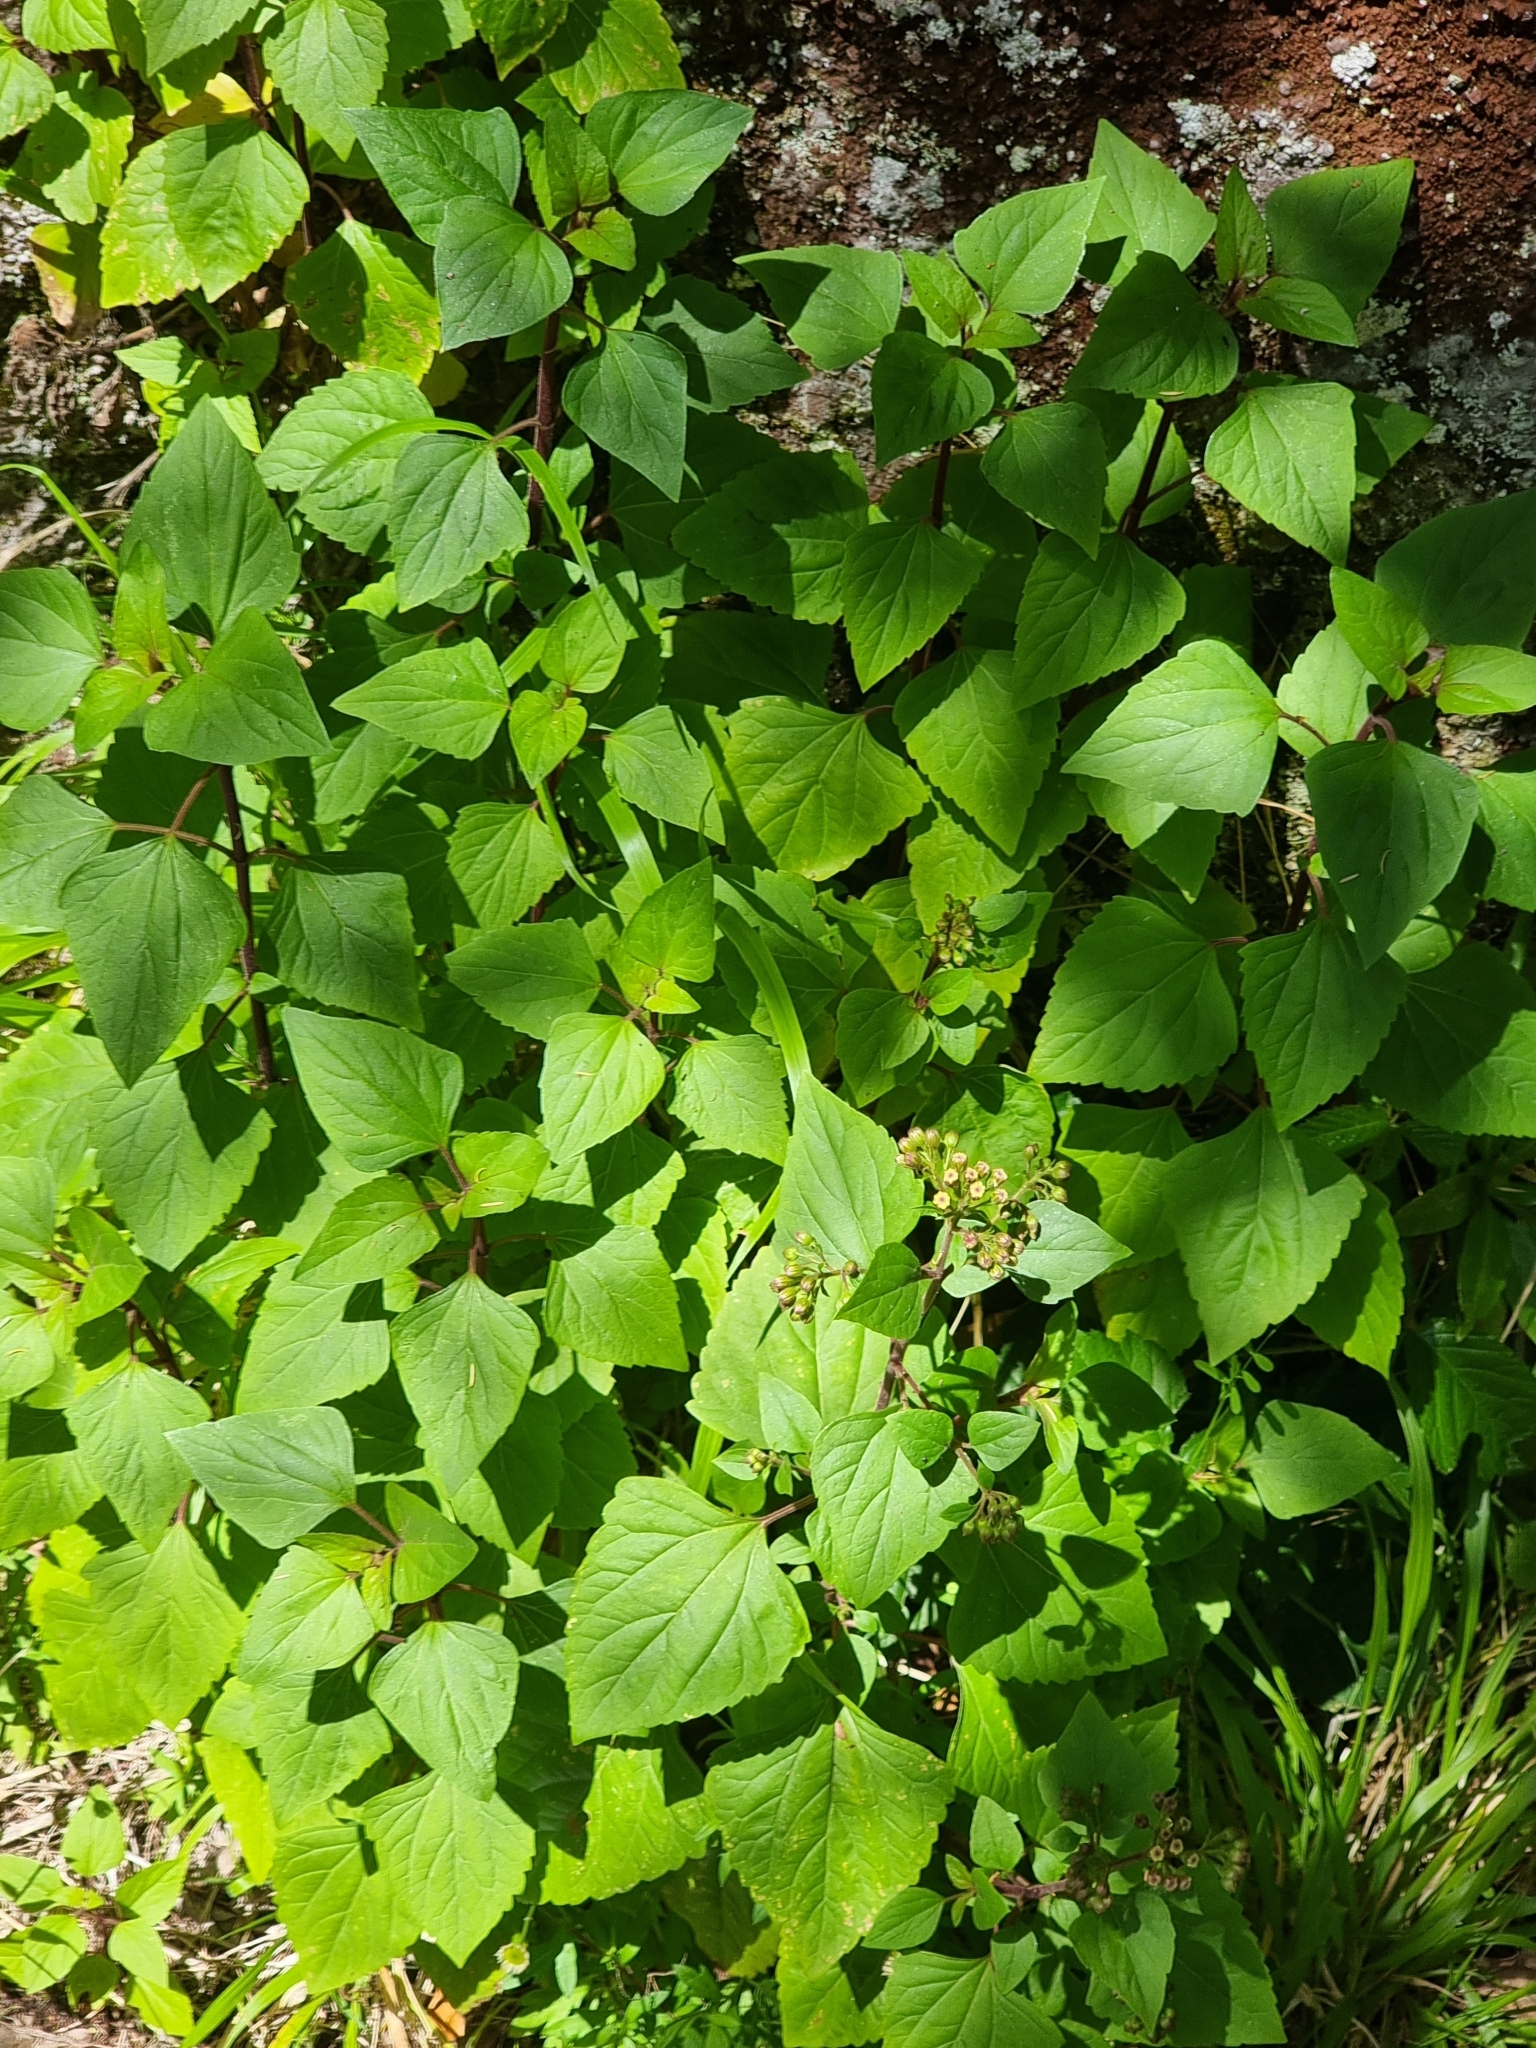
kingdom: Plantae
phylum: Tracheophyta
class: Magnoliopsida
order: Asterales
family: Asteraceae
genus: Ageratina
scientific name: Ageratina adenophora
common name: Sticky snakeroot
